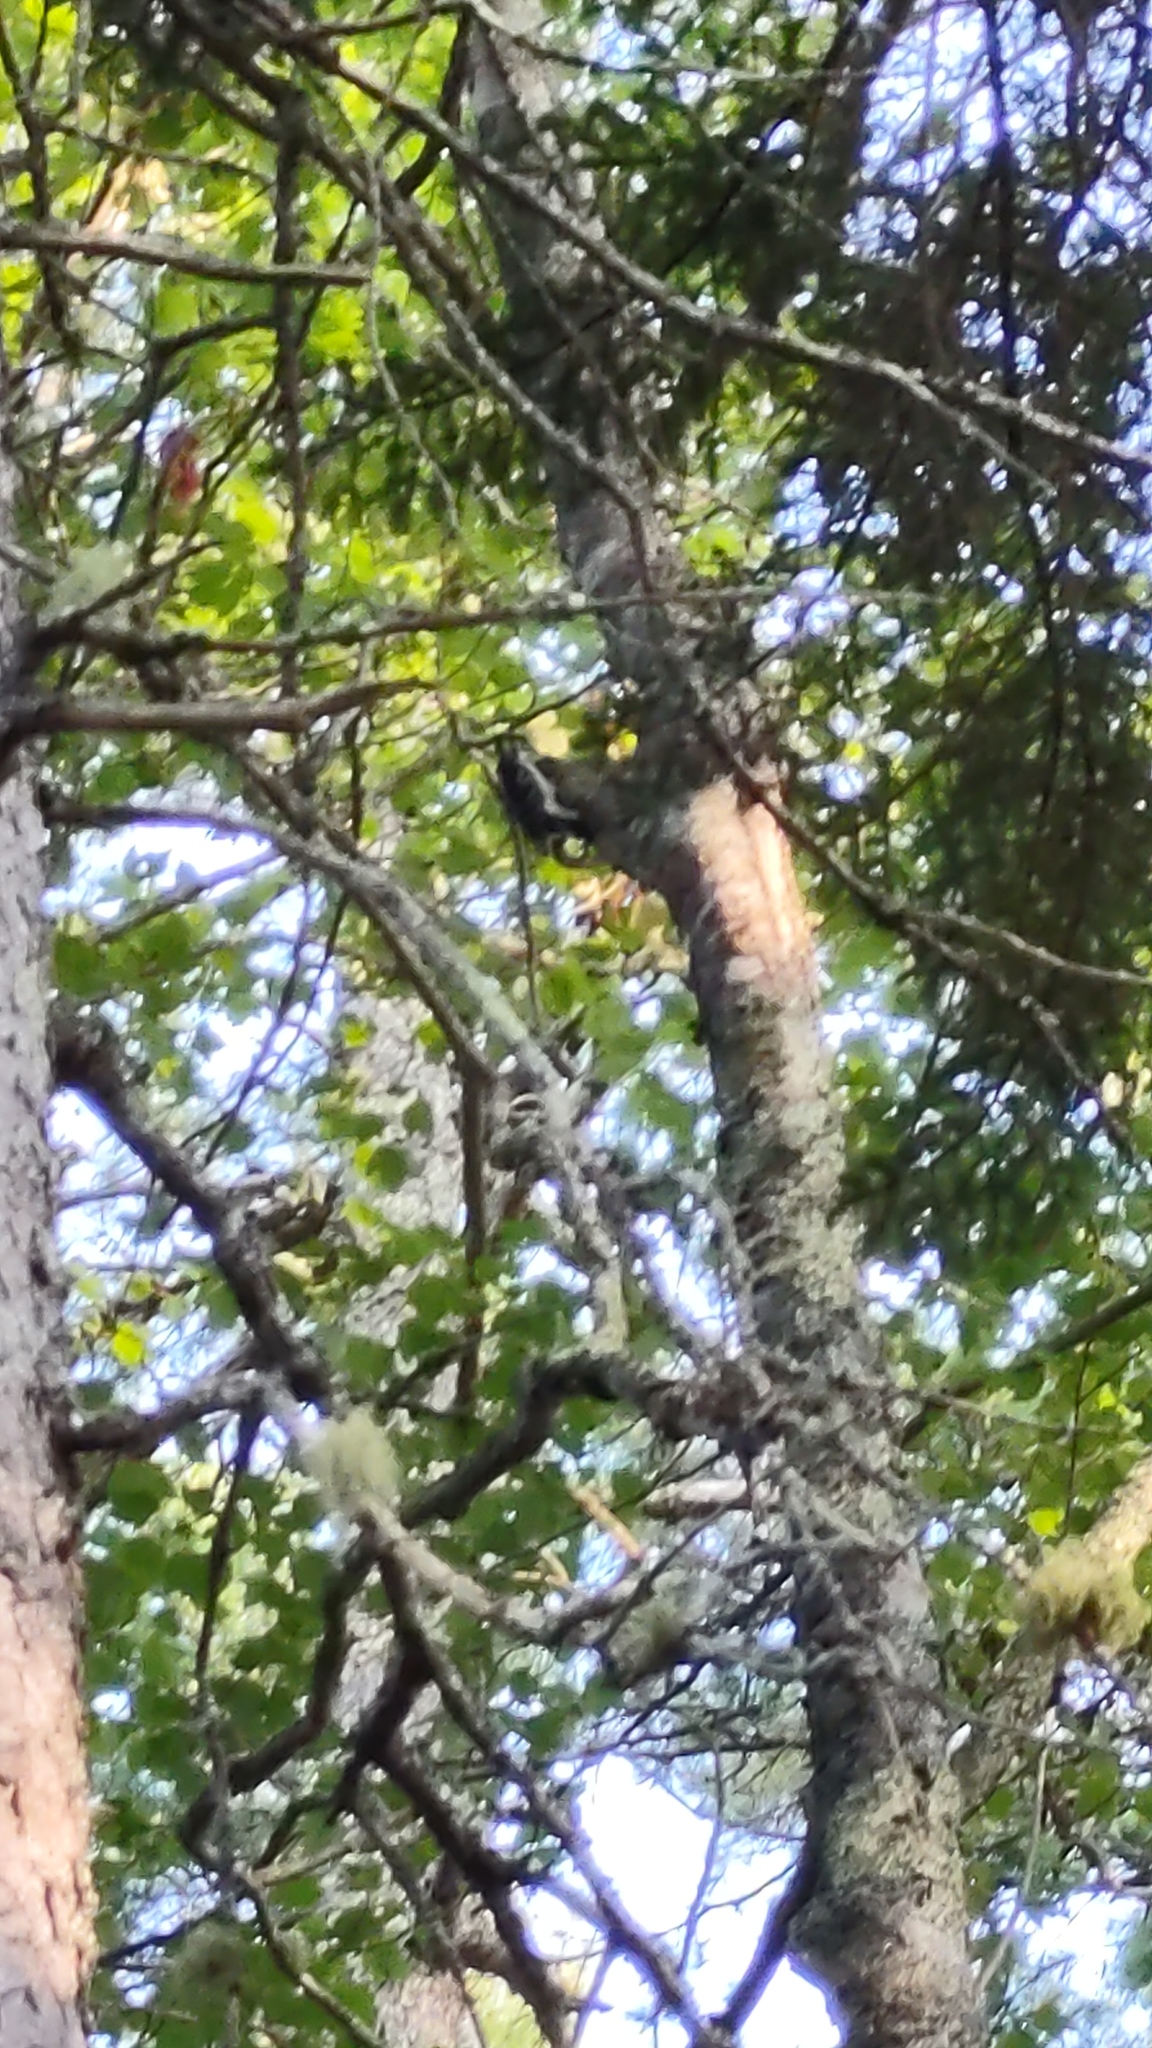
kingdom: Animalia
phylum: Chordata
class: Aves
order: Piciformes
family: Picidae
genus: Leuconotopicus
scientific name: Leuconotopicus villosus
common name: Hairy woodpecker
